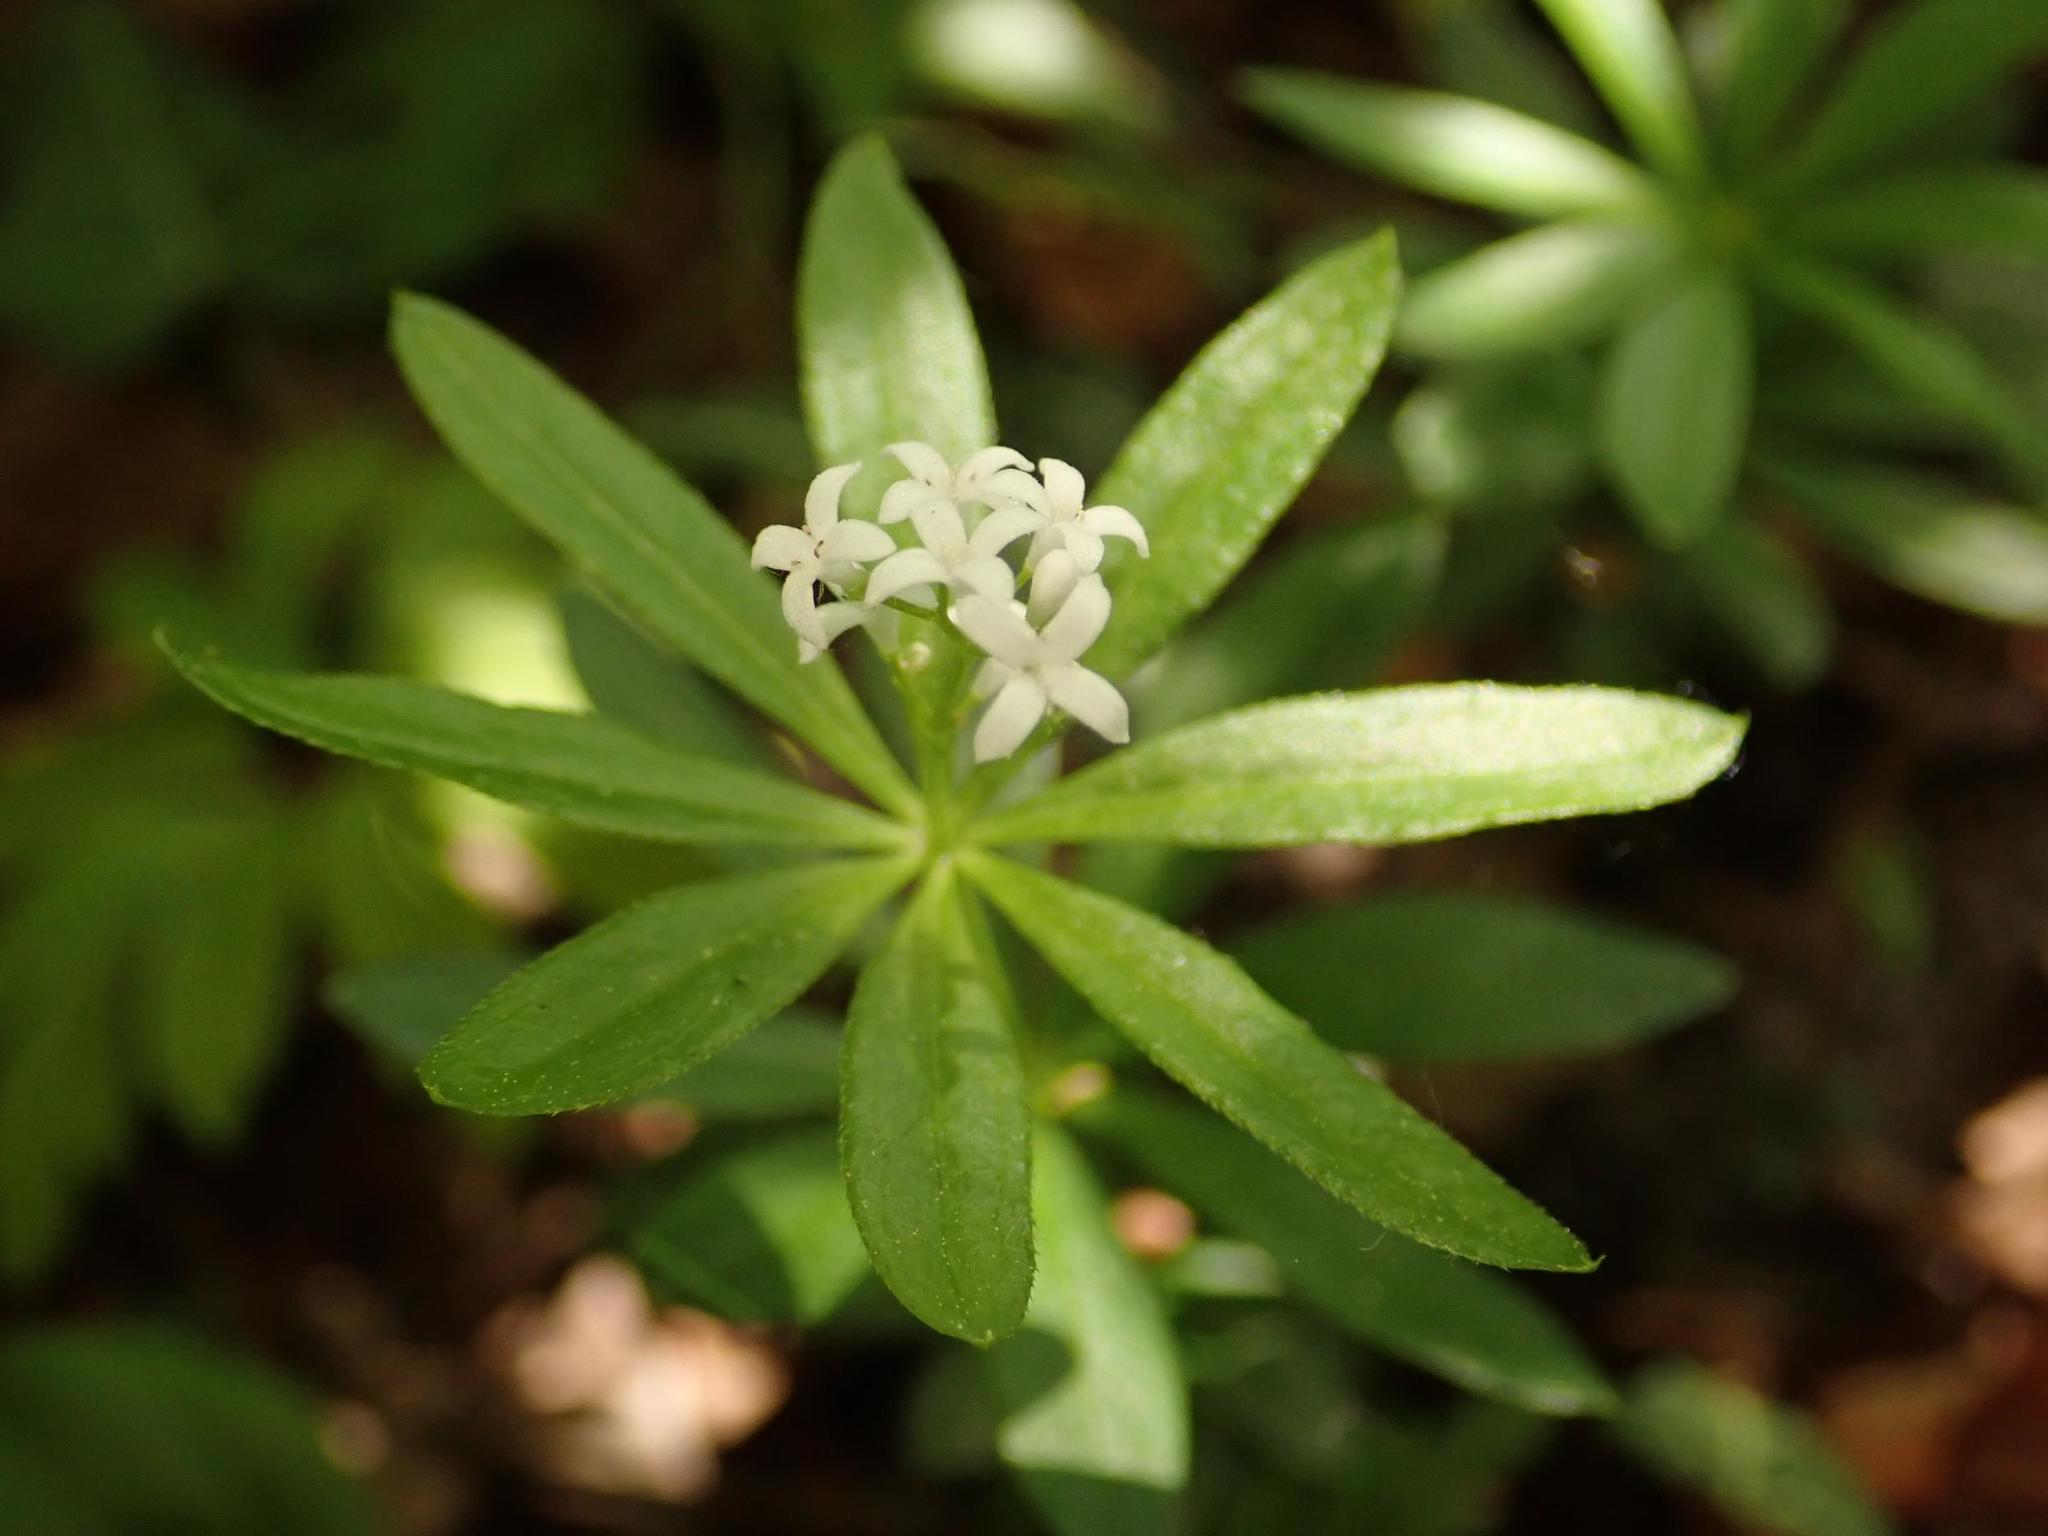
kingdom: Plantae
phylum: Tracheophyta
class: Magnoliopsida
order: Gentianales
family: Rubiaceae
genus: Galium
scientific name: Galium odoratum
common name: Sweet woodruff
